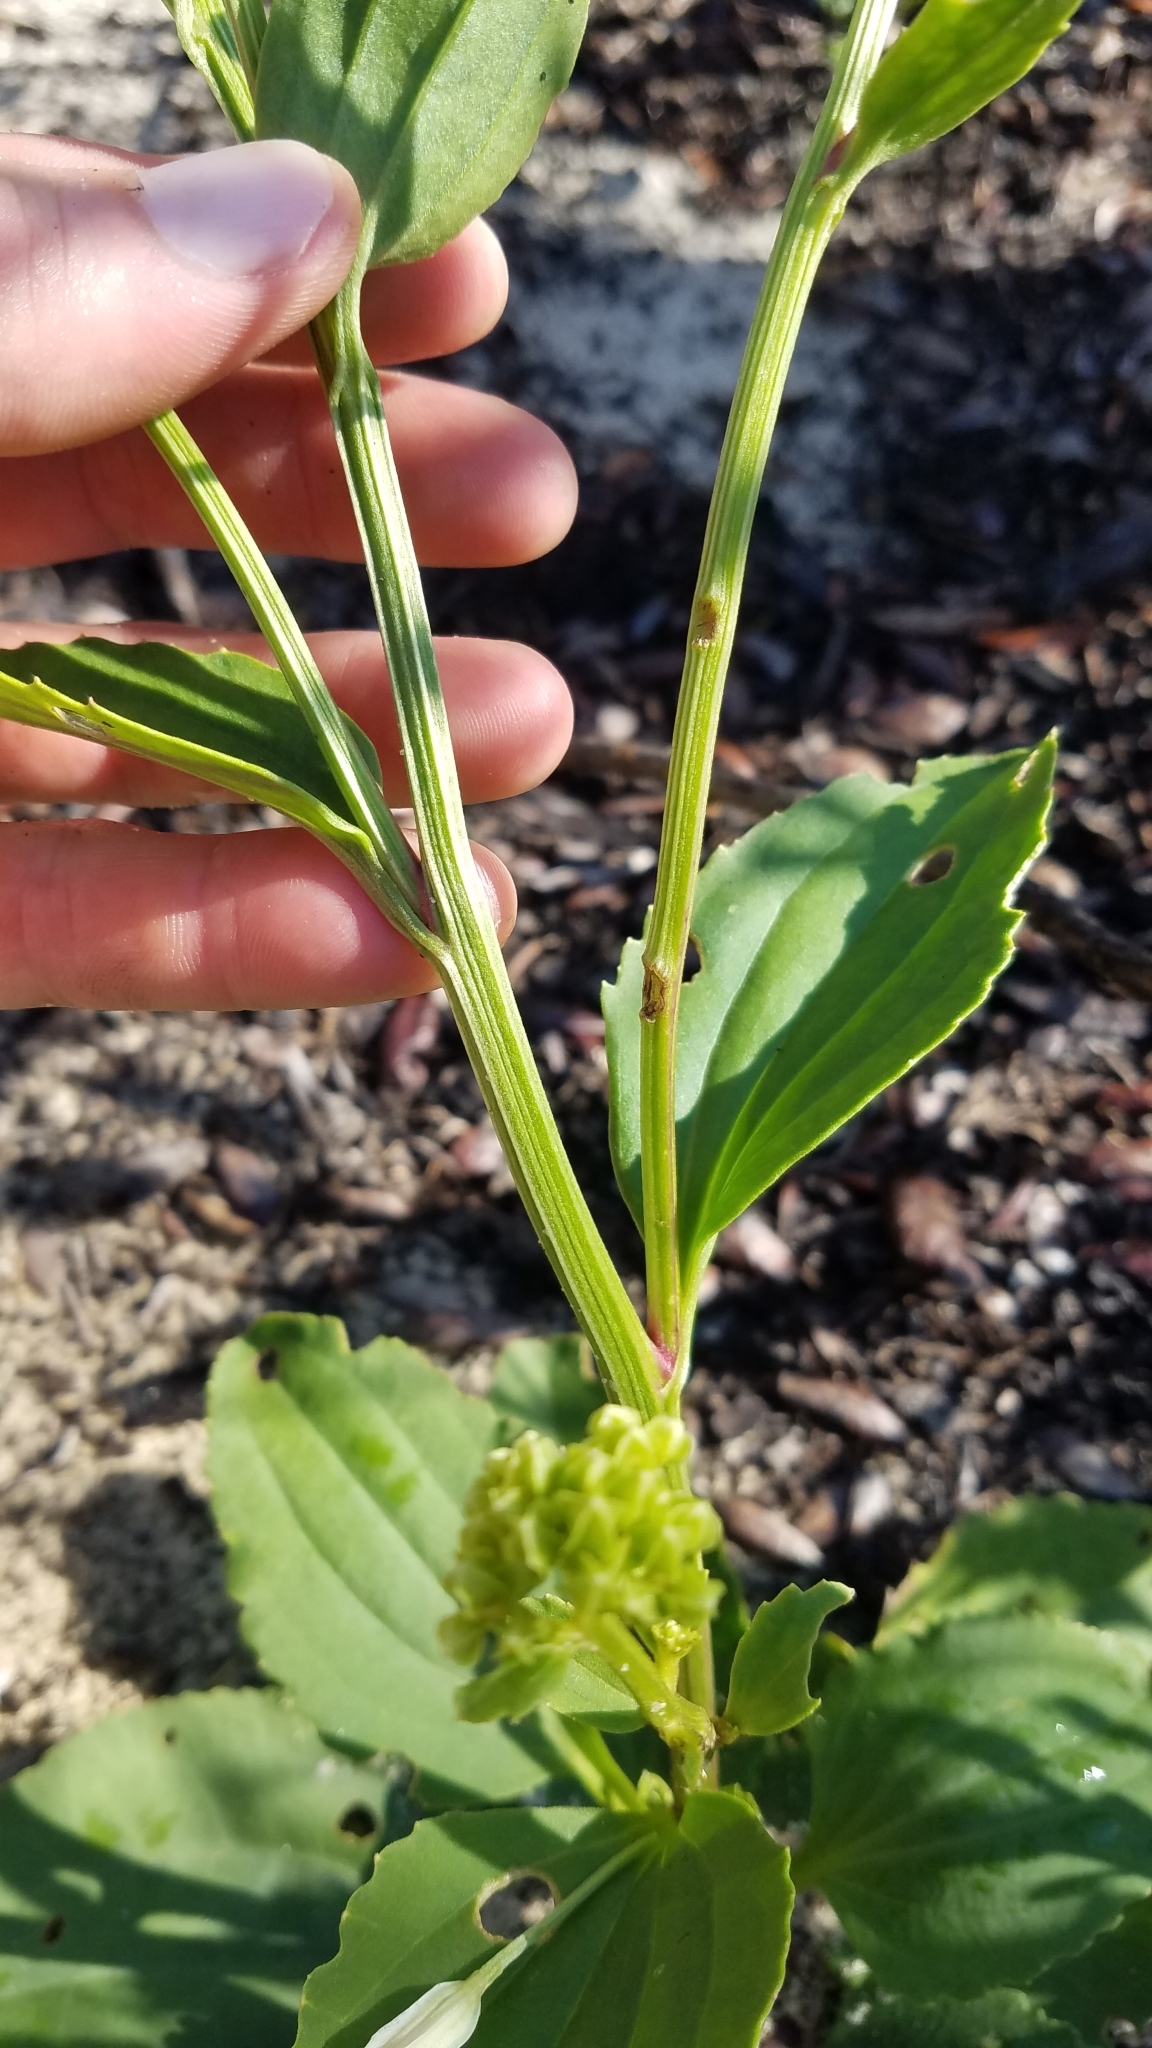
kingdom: Plantae
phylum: Tracheophyta
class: Magnoliopsida
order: Asterales
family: Asteraceae
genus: Arnoglossum
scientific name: Arnoglossum floridanum
